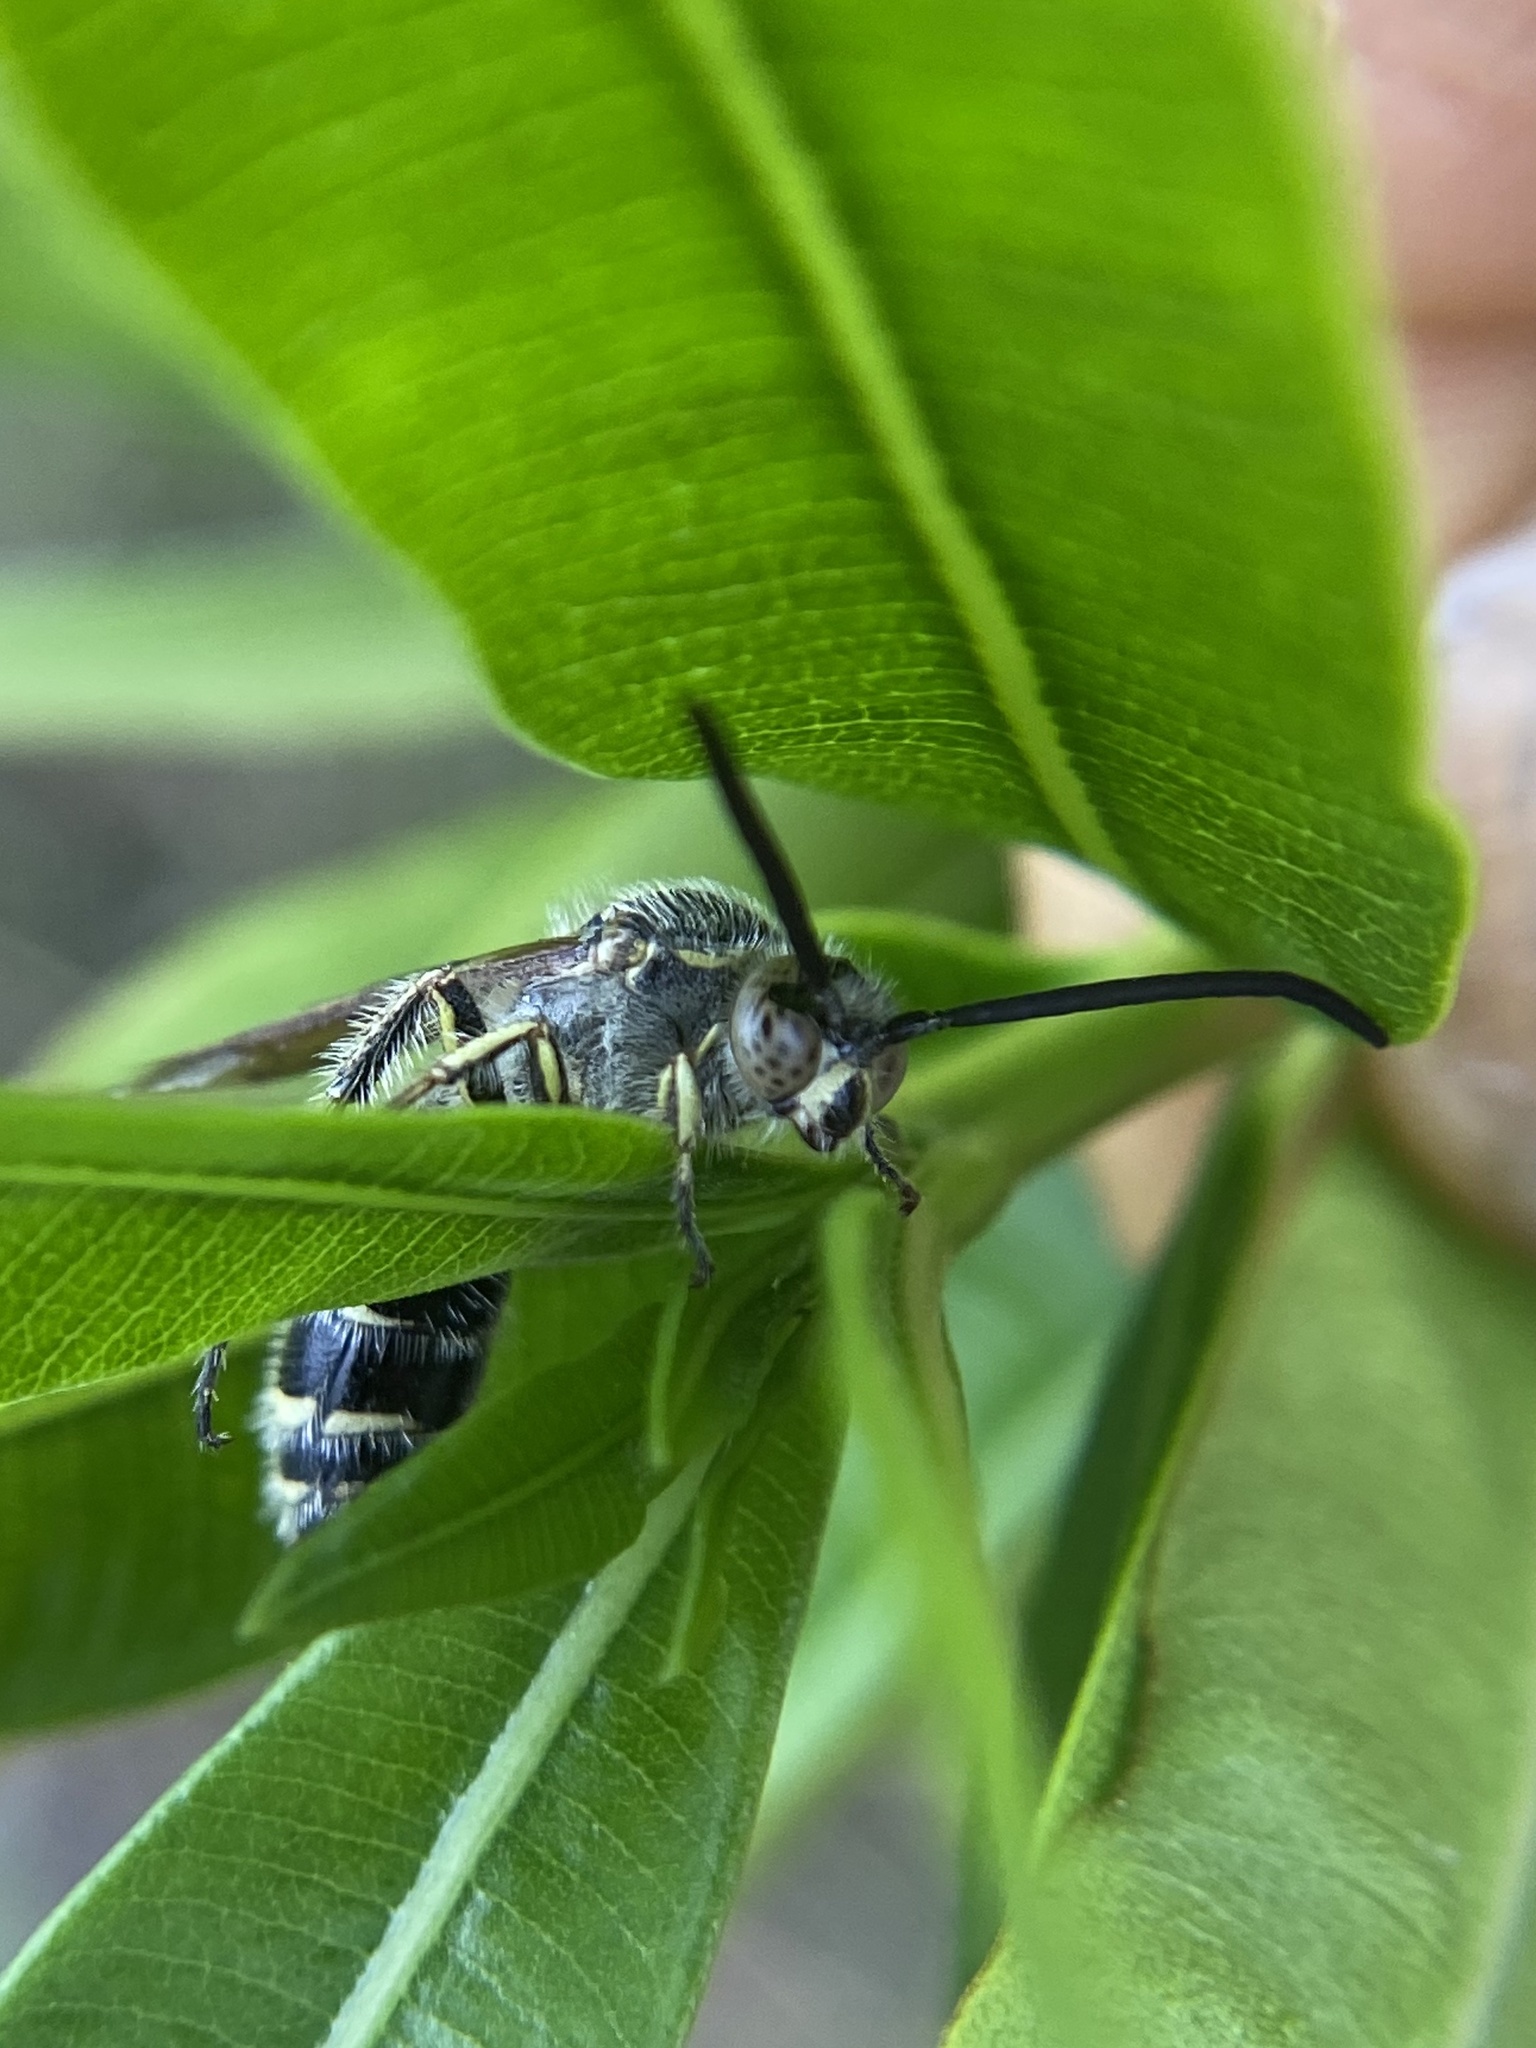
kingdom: Animalia
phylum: Arthropoda
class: Insecta
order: Hymenoptera
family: Scoliidae
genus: Dielis
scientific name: Dielis dorsata
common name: Scoliid wasp
